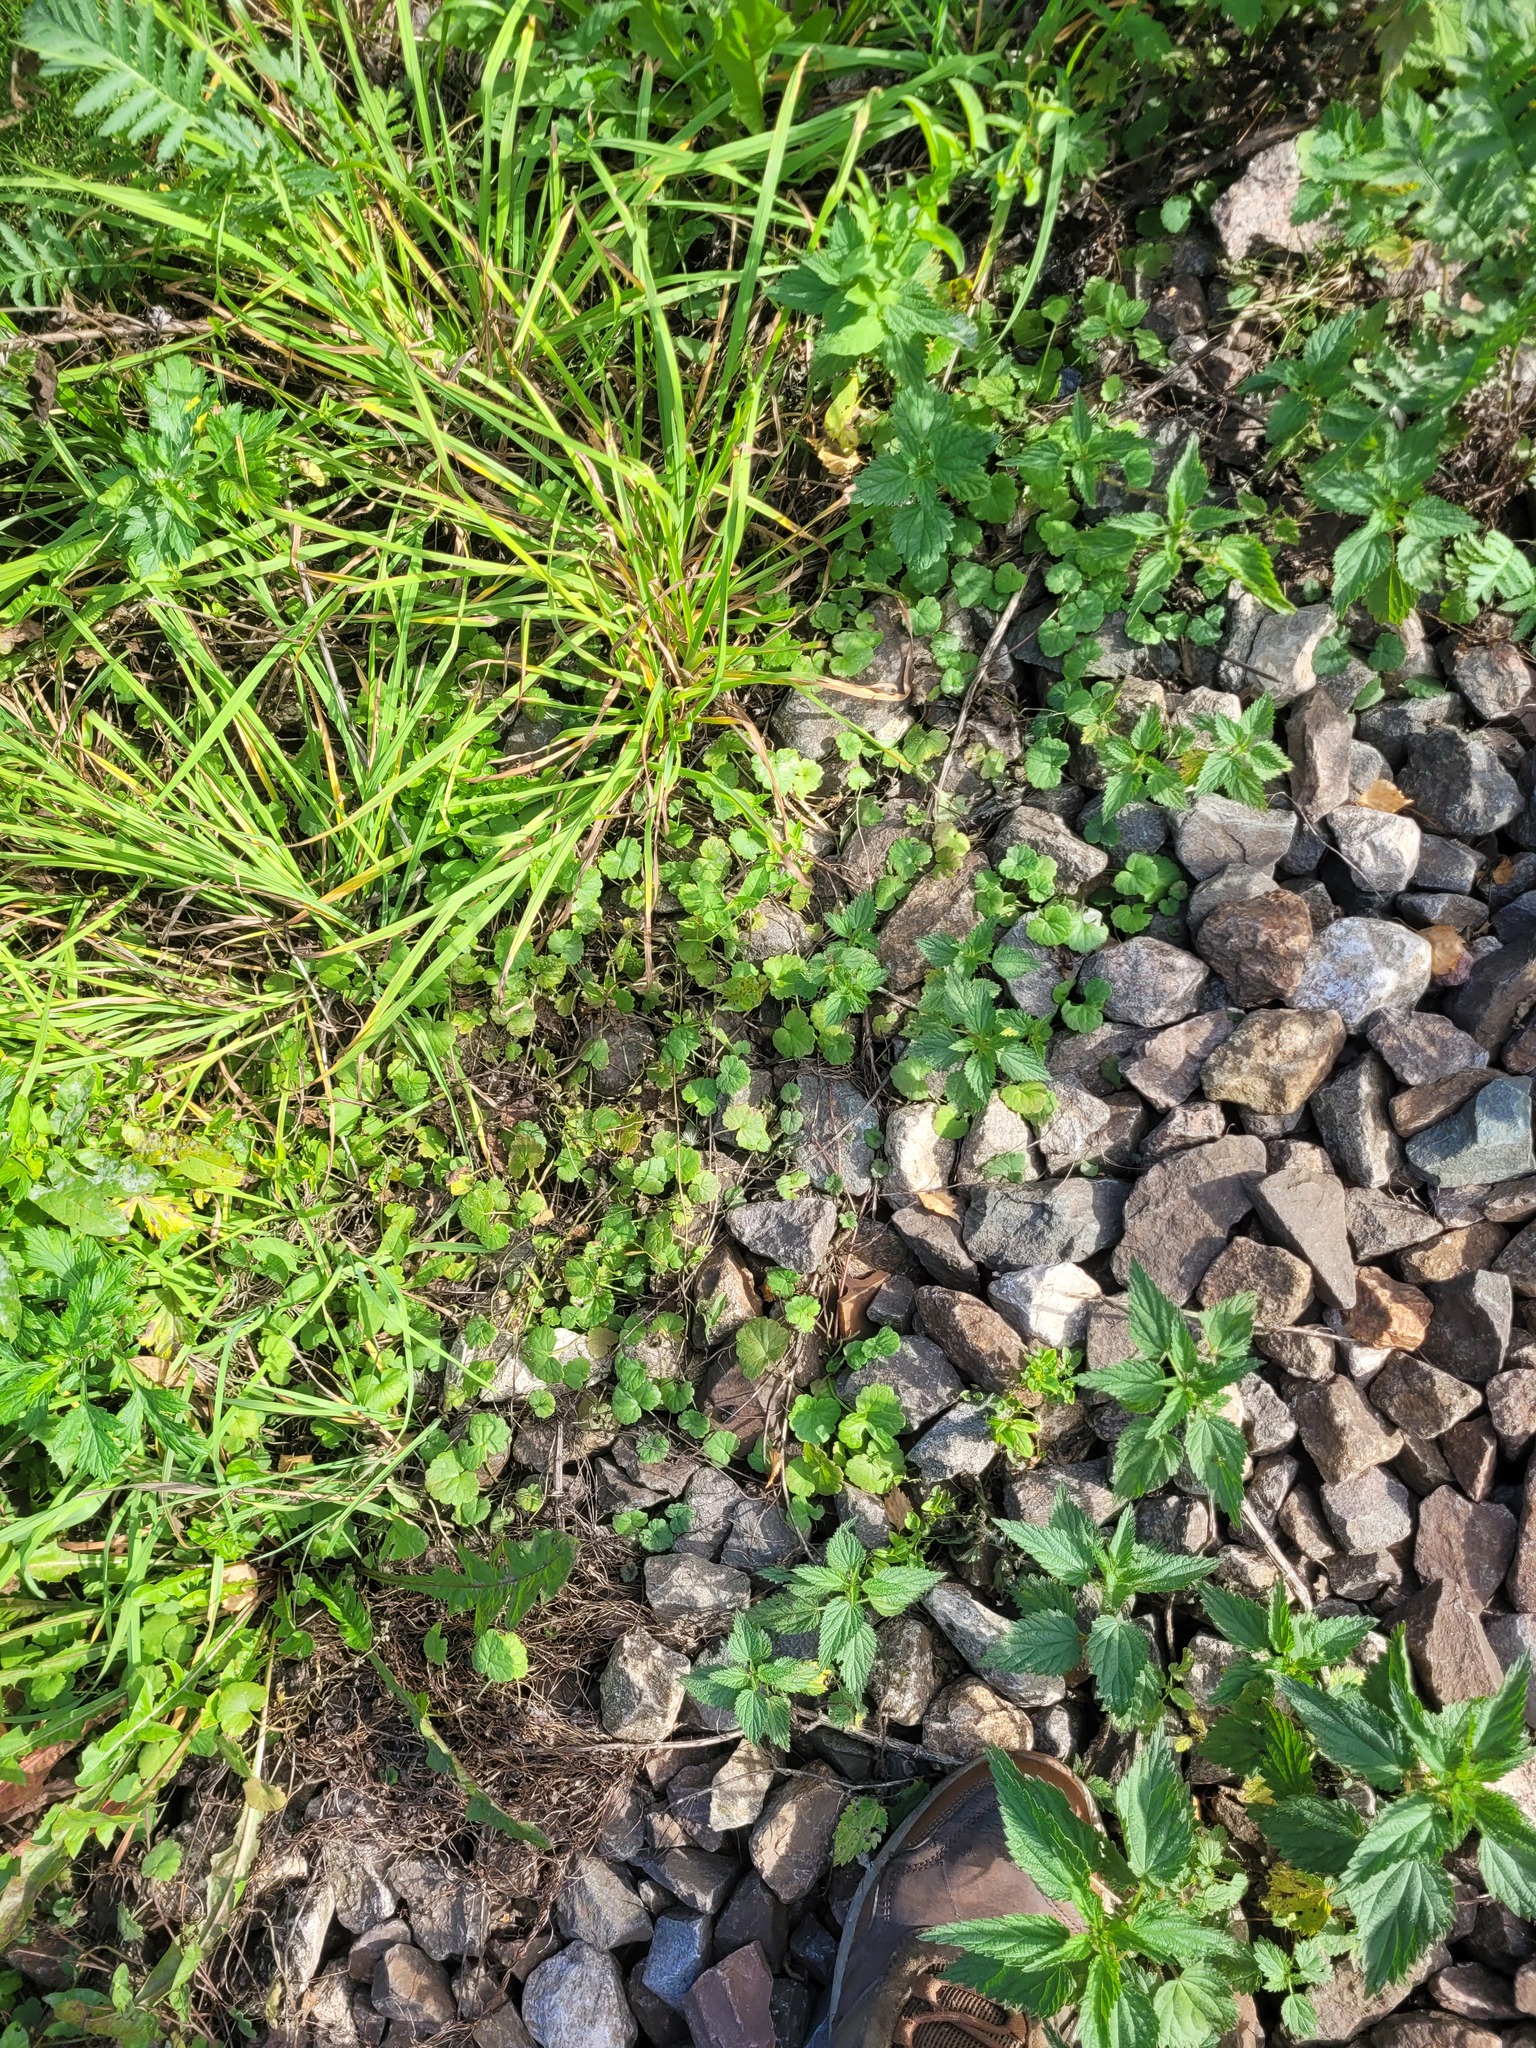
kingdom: Plantae
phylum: Tracheophyta
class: Magnoliopsida
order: Lamiales
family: Lamiaceae
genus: Glechoma
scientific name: Glechoma hederacea
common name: Ground ivy
